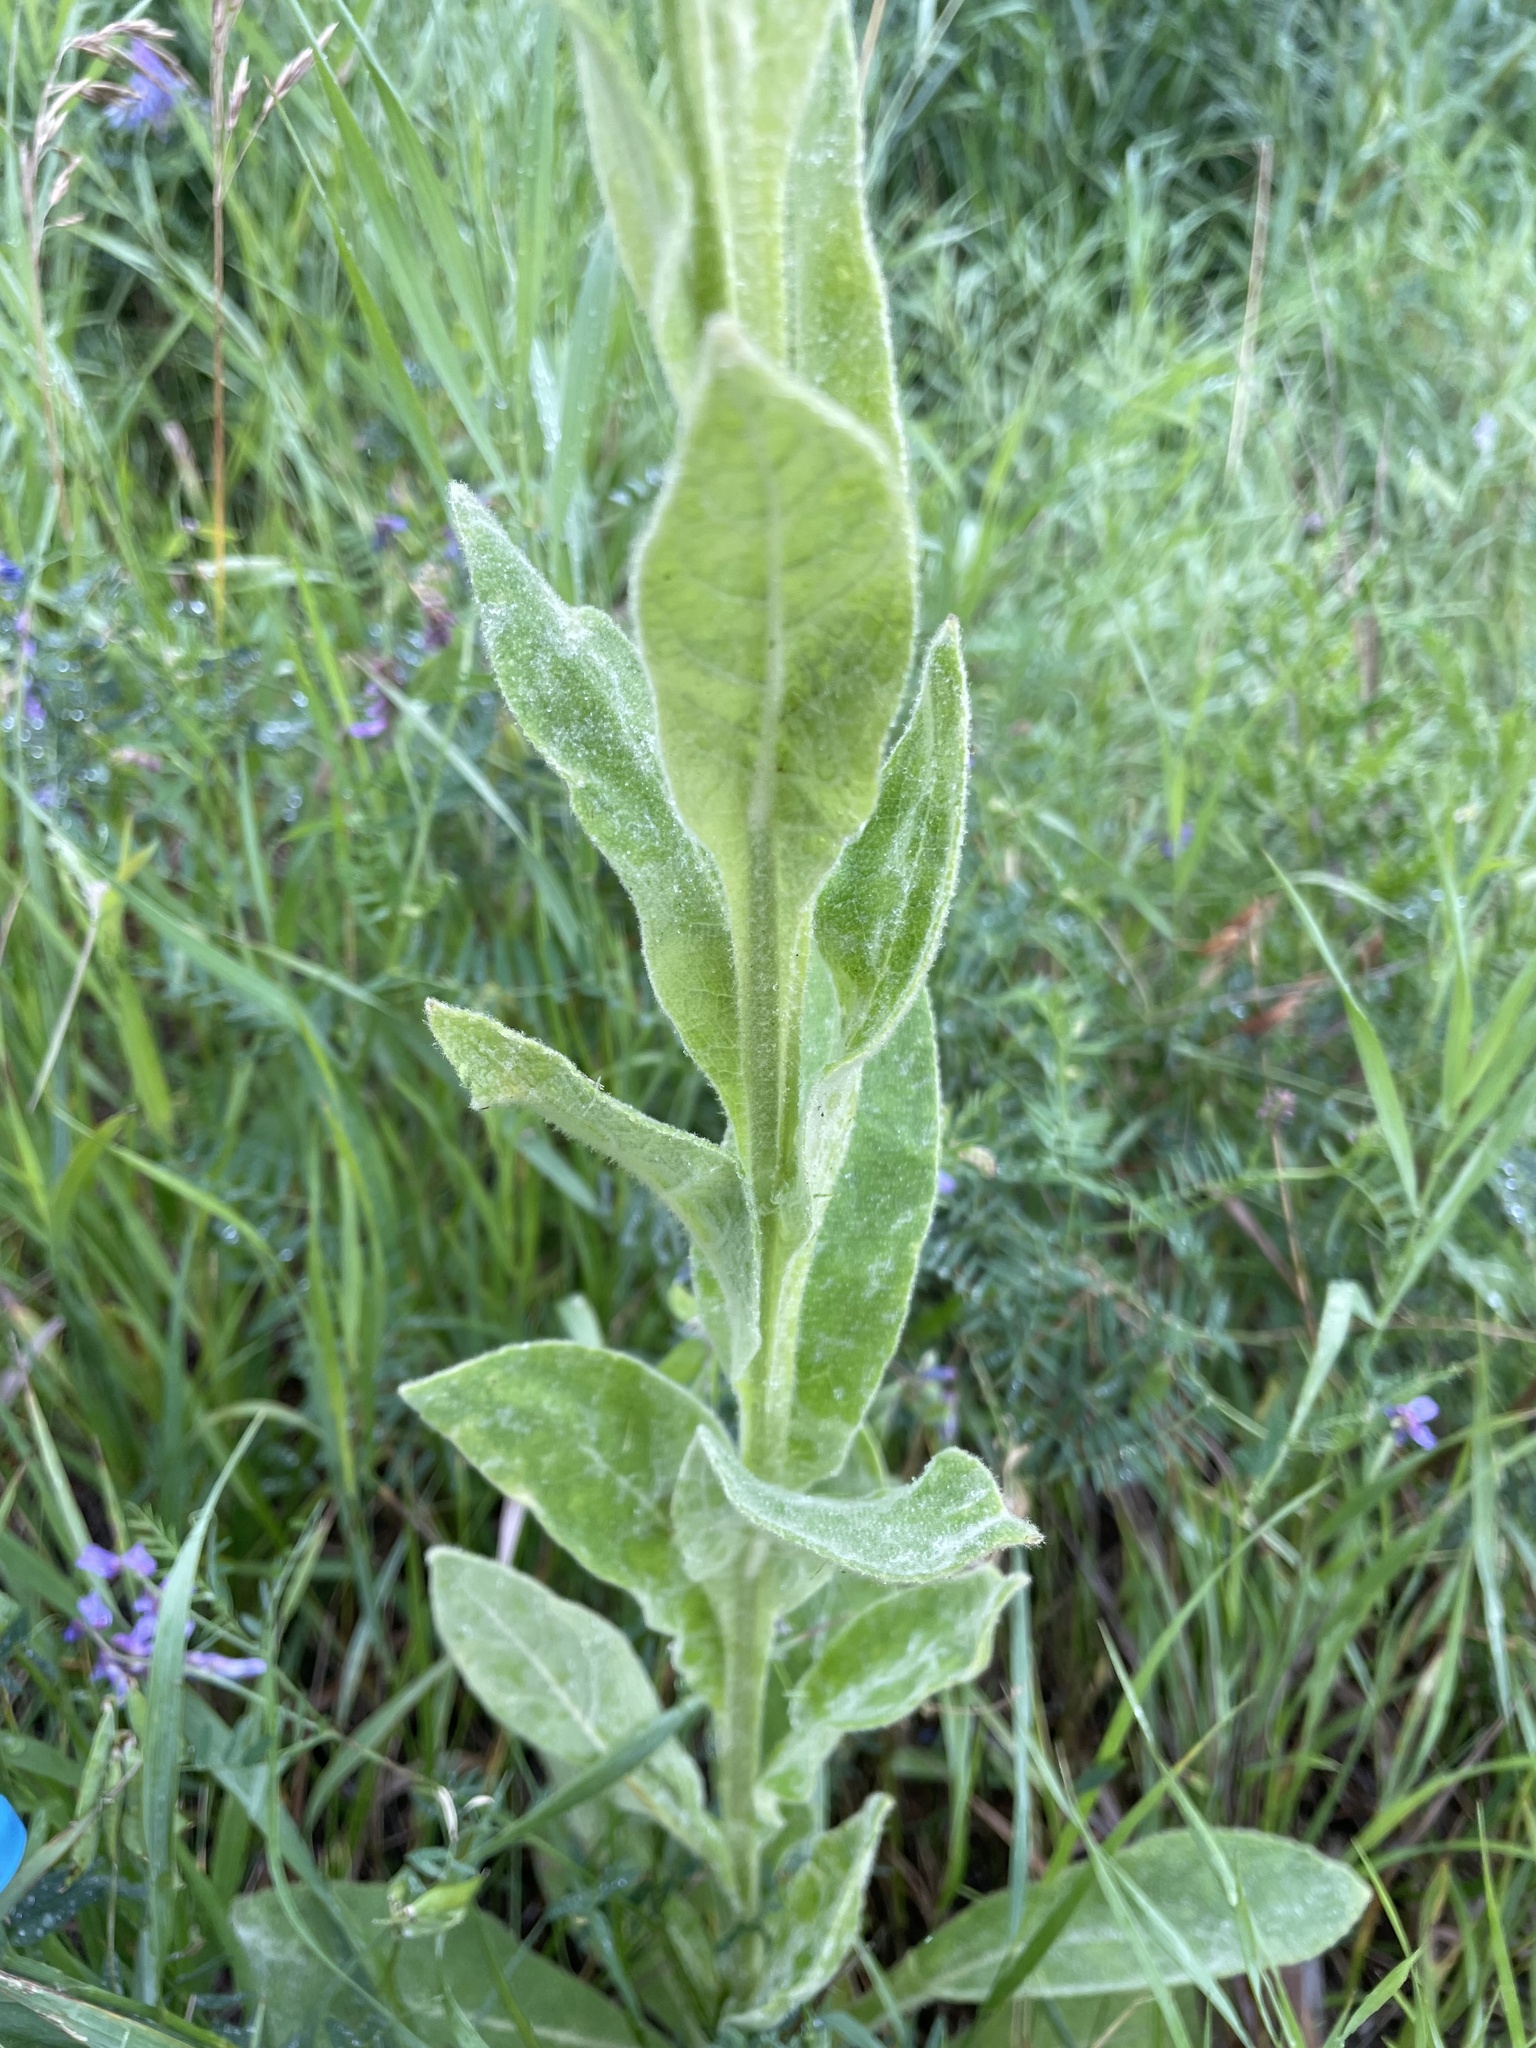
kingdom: Plantae
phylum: Tracheophyta
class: Magnoliopsida
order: Lamiales
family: Scrophulariaceae
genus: Verbascum
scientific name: Verbascum thapsus
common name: Common mullein
